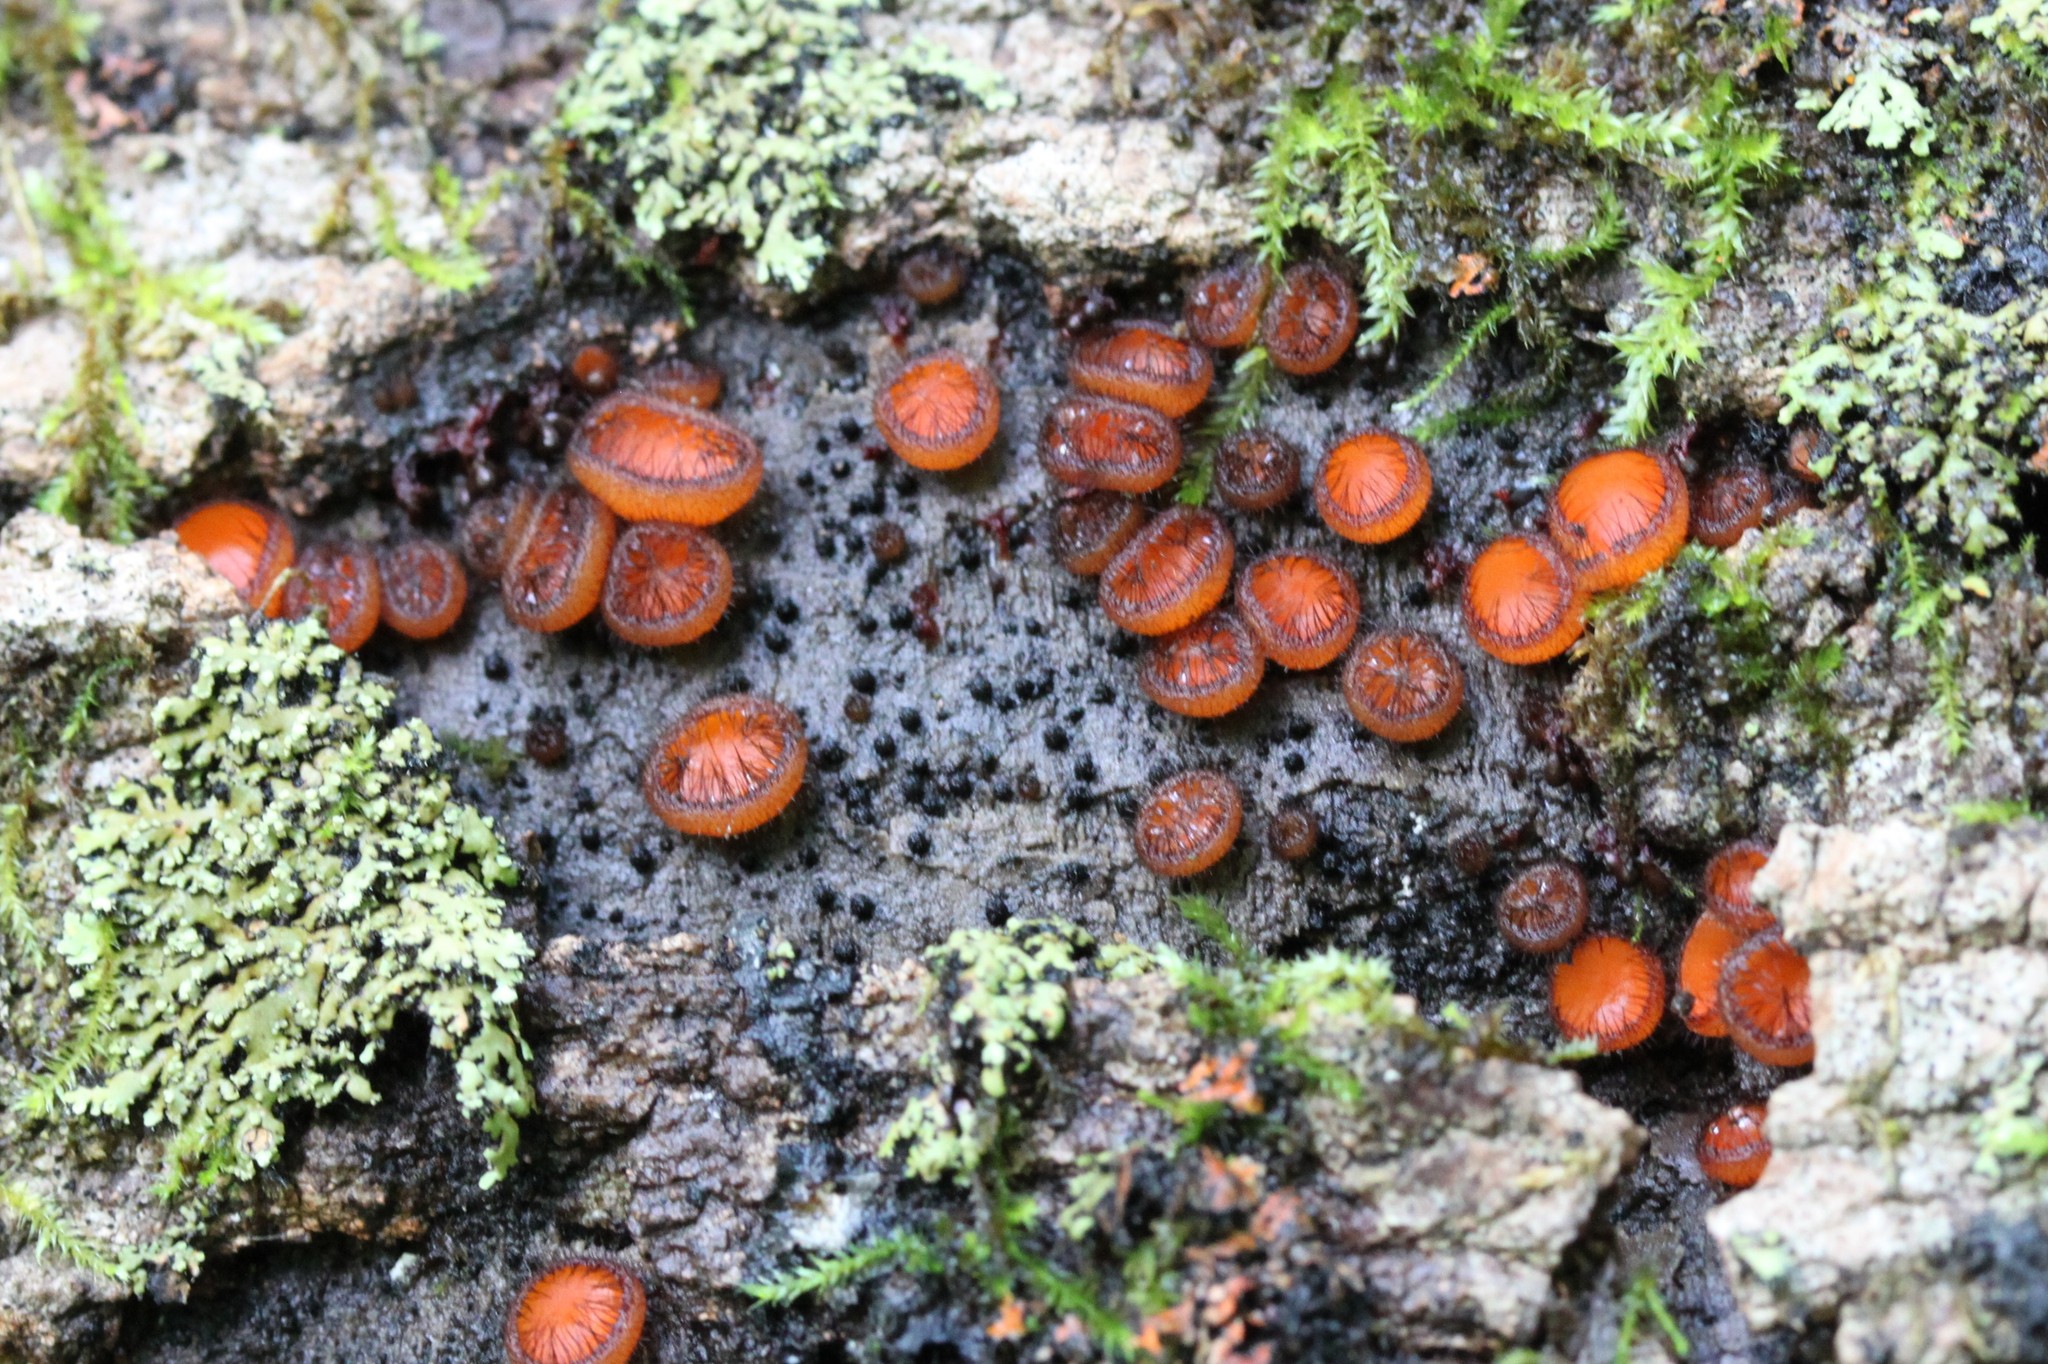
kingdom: Fungi
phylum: Ascomycota
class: Pezizomycetes
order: Pezizales
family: Pyronemataceae
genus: Scutellinia
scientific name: Scutellinia scutellata
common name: Common eyelash
